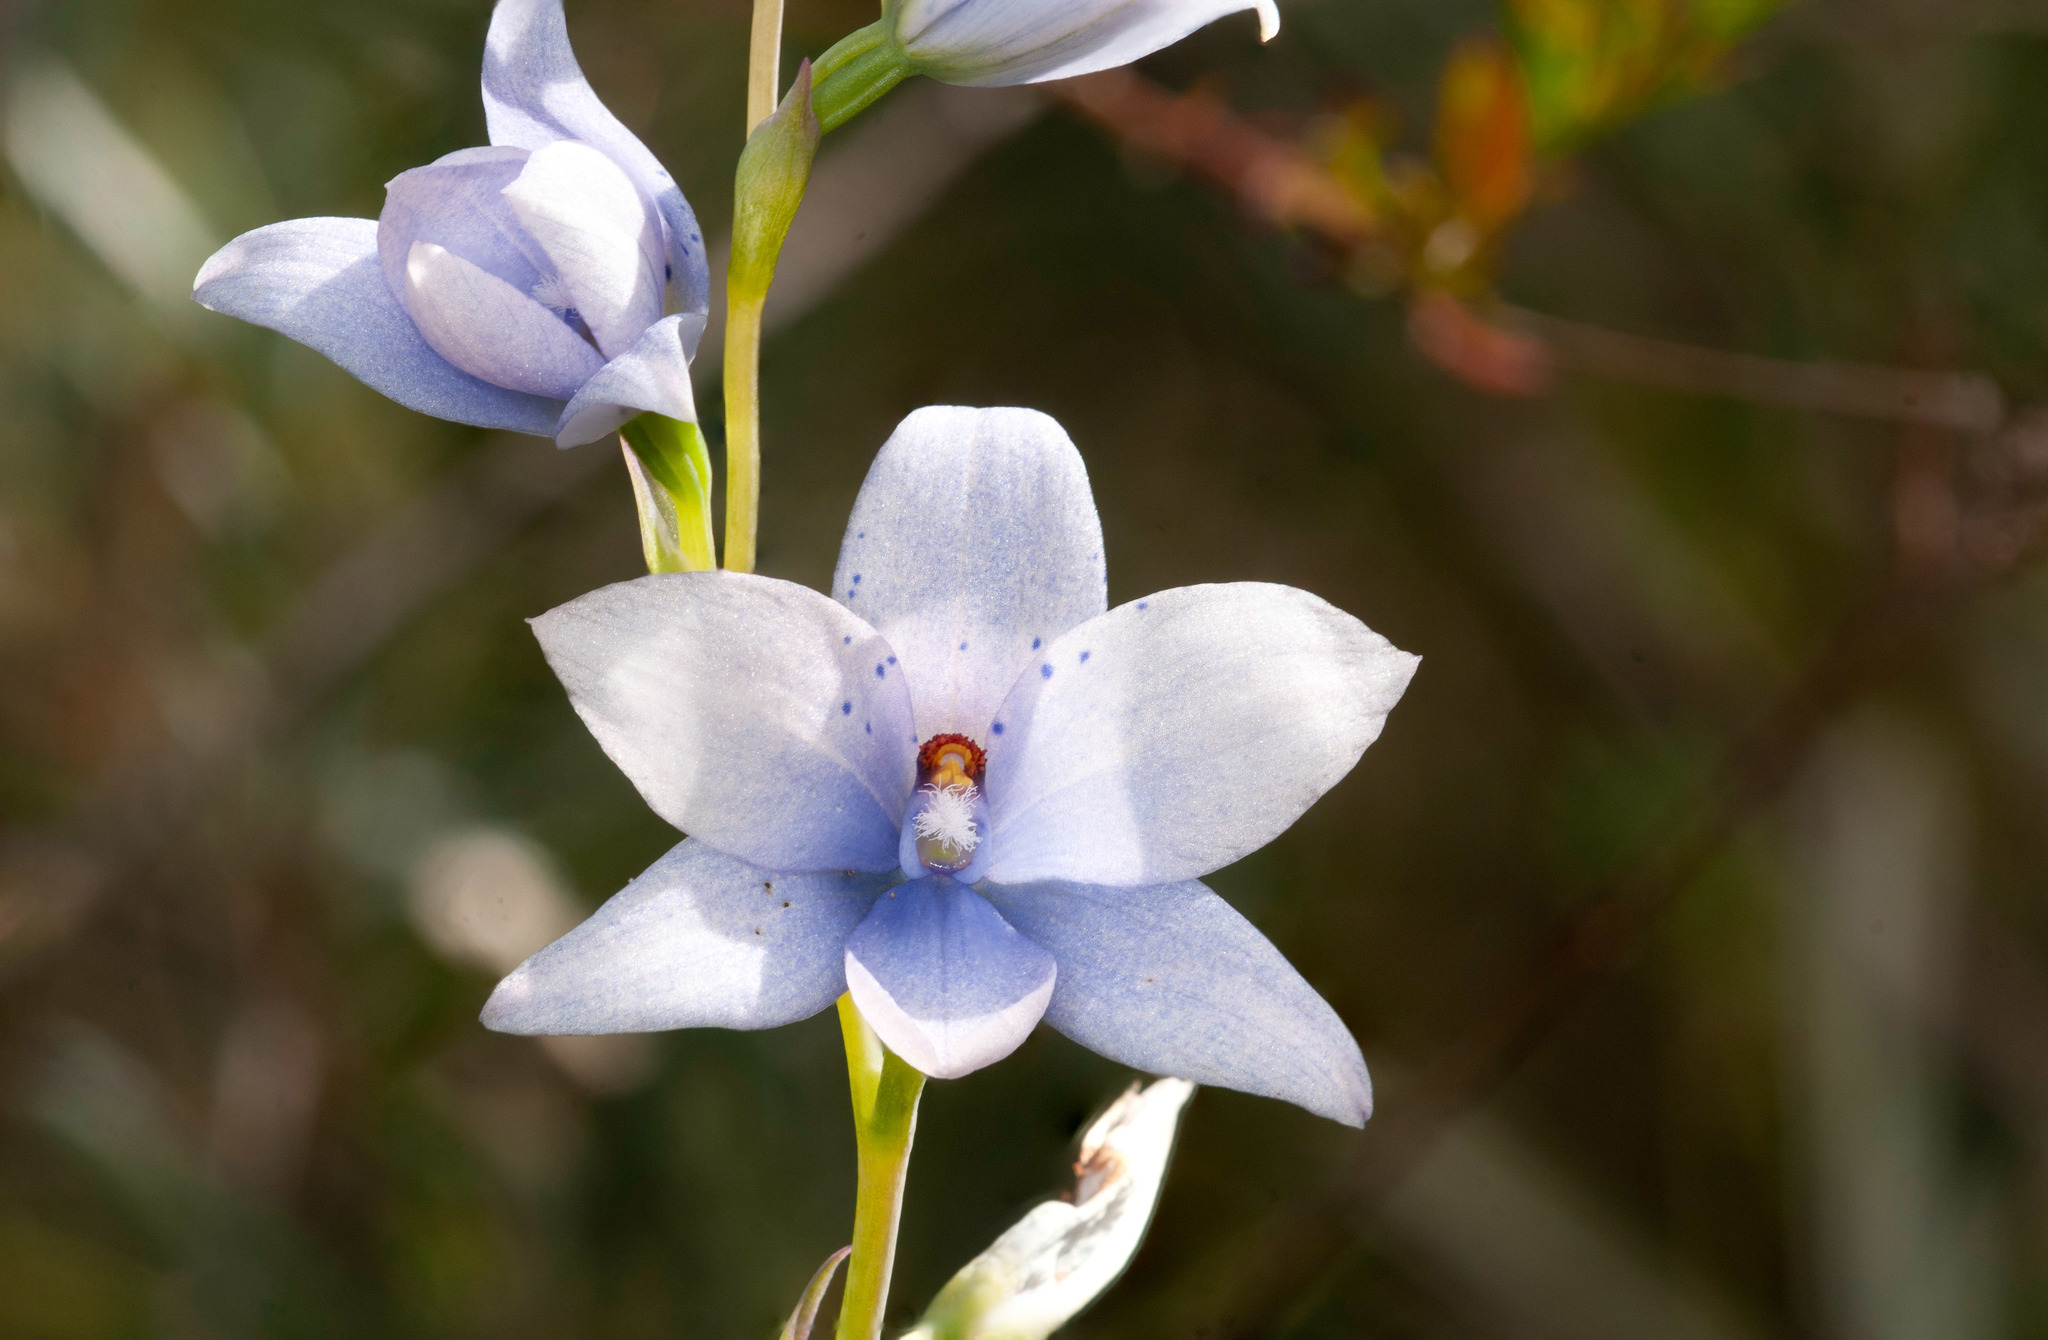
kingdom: Plantae
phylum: Tracheophyta
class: Liliopsida
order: Asparagales
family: Orchidaceae
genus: Thelymitra
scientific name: Thelymitra ixioides
